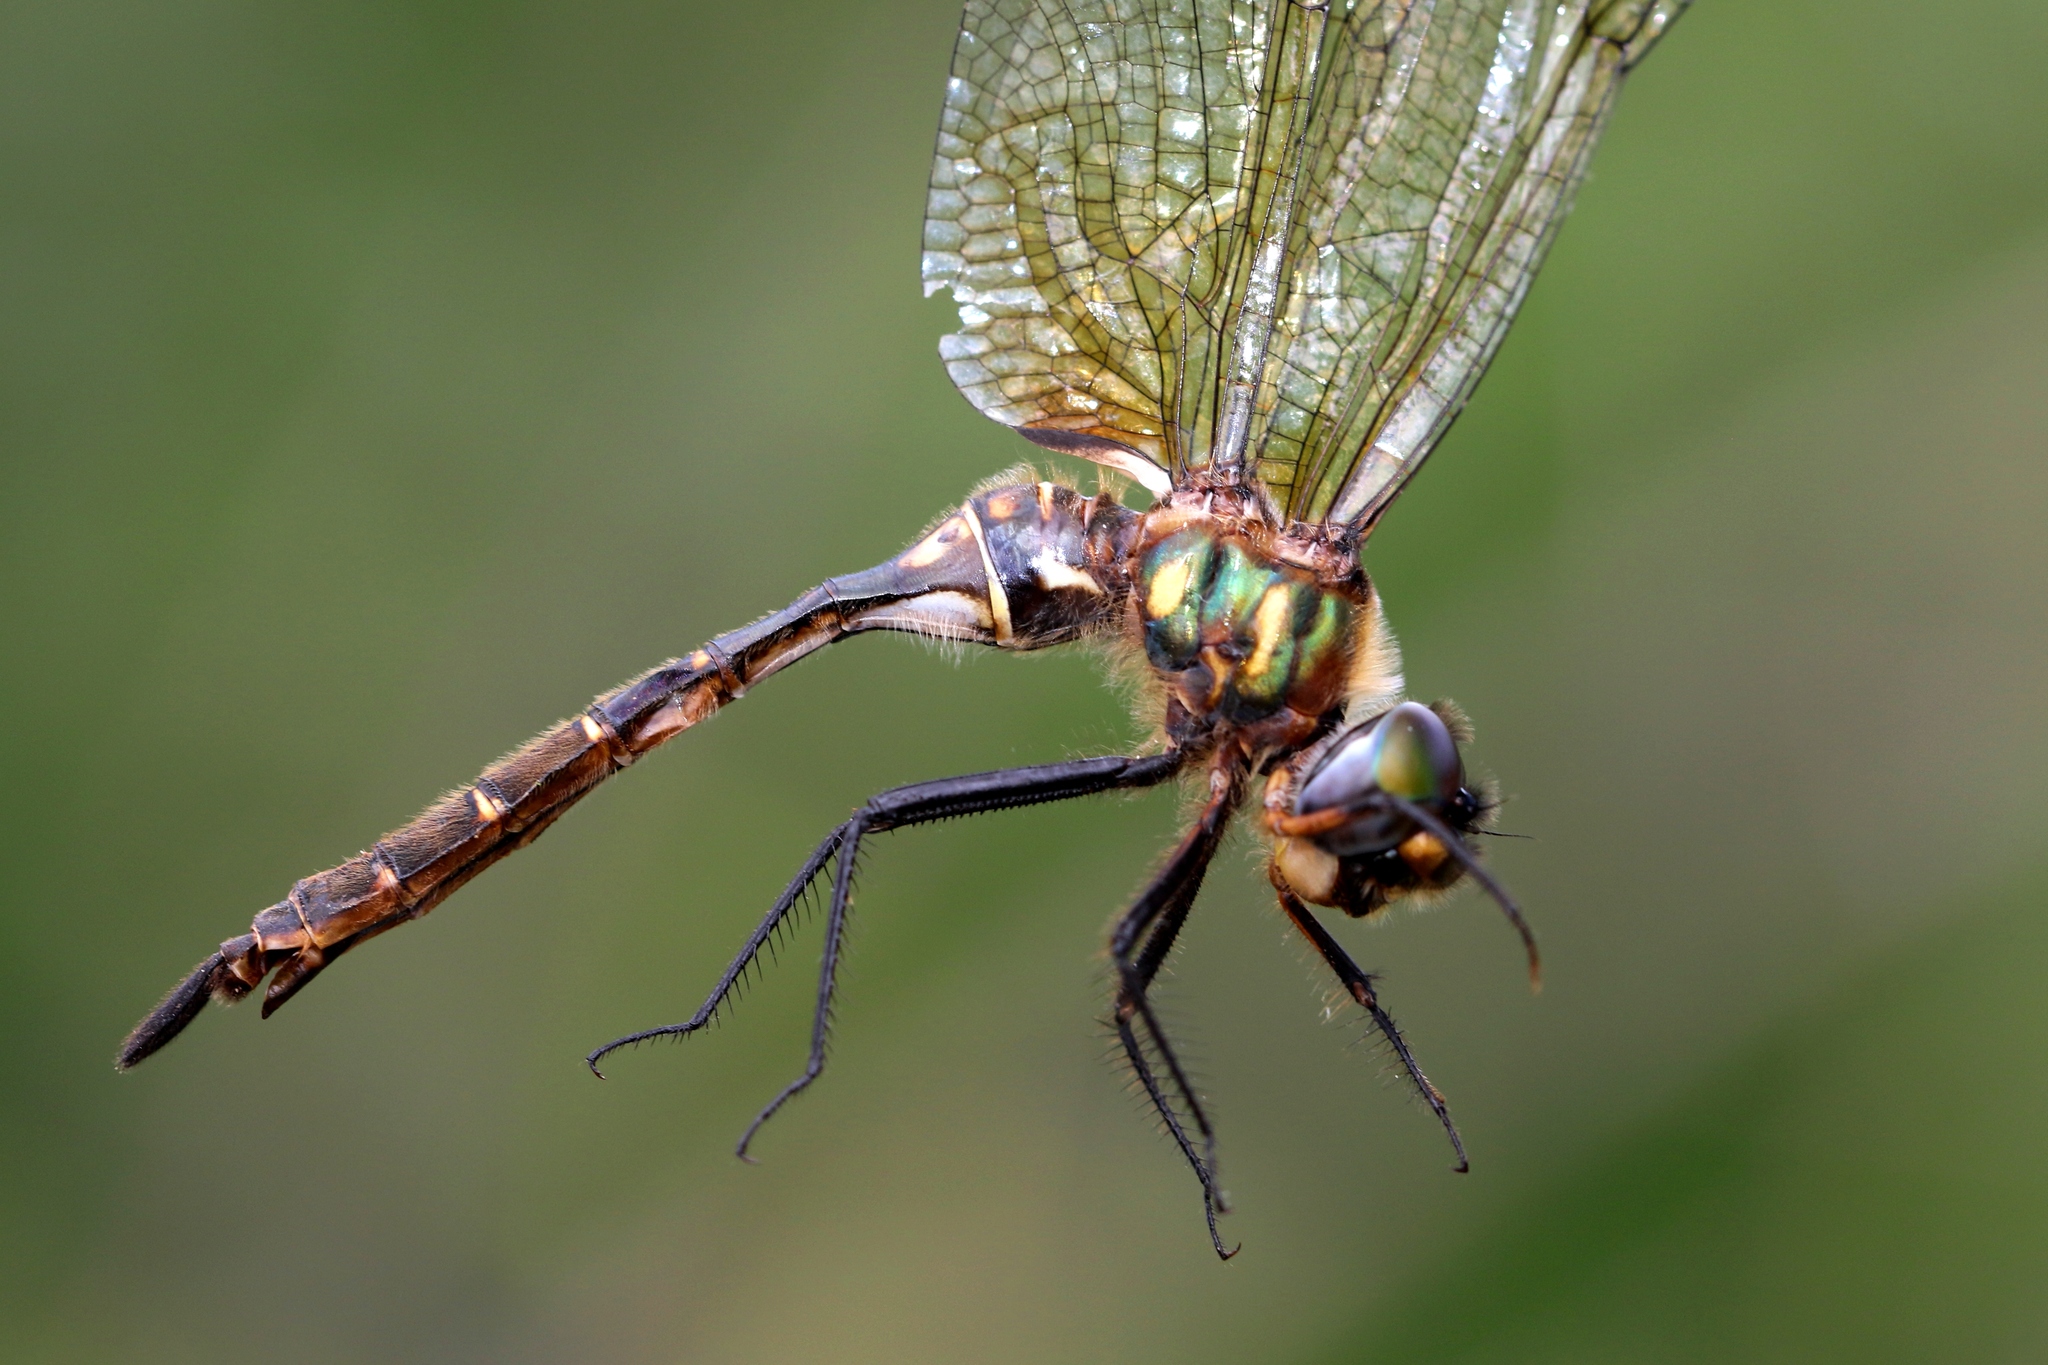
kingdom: Animalia
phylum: Arthropoda
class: Insecta
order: Odonata
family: Corduliidae
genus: Somatochlora
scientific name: Somatochlora walshii
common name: Brush-tipped emerald
